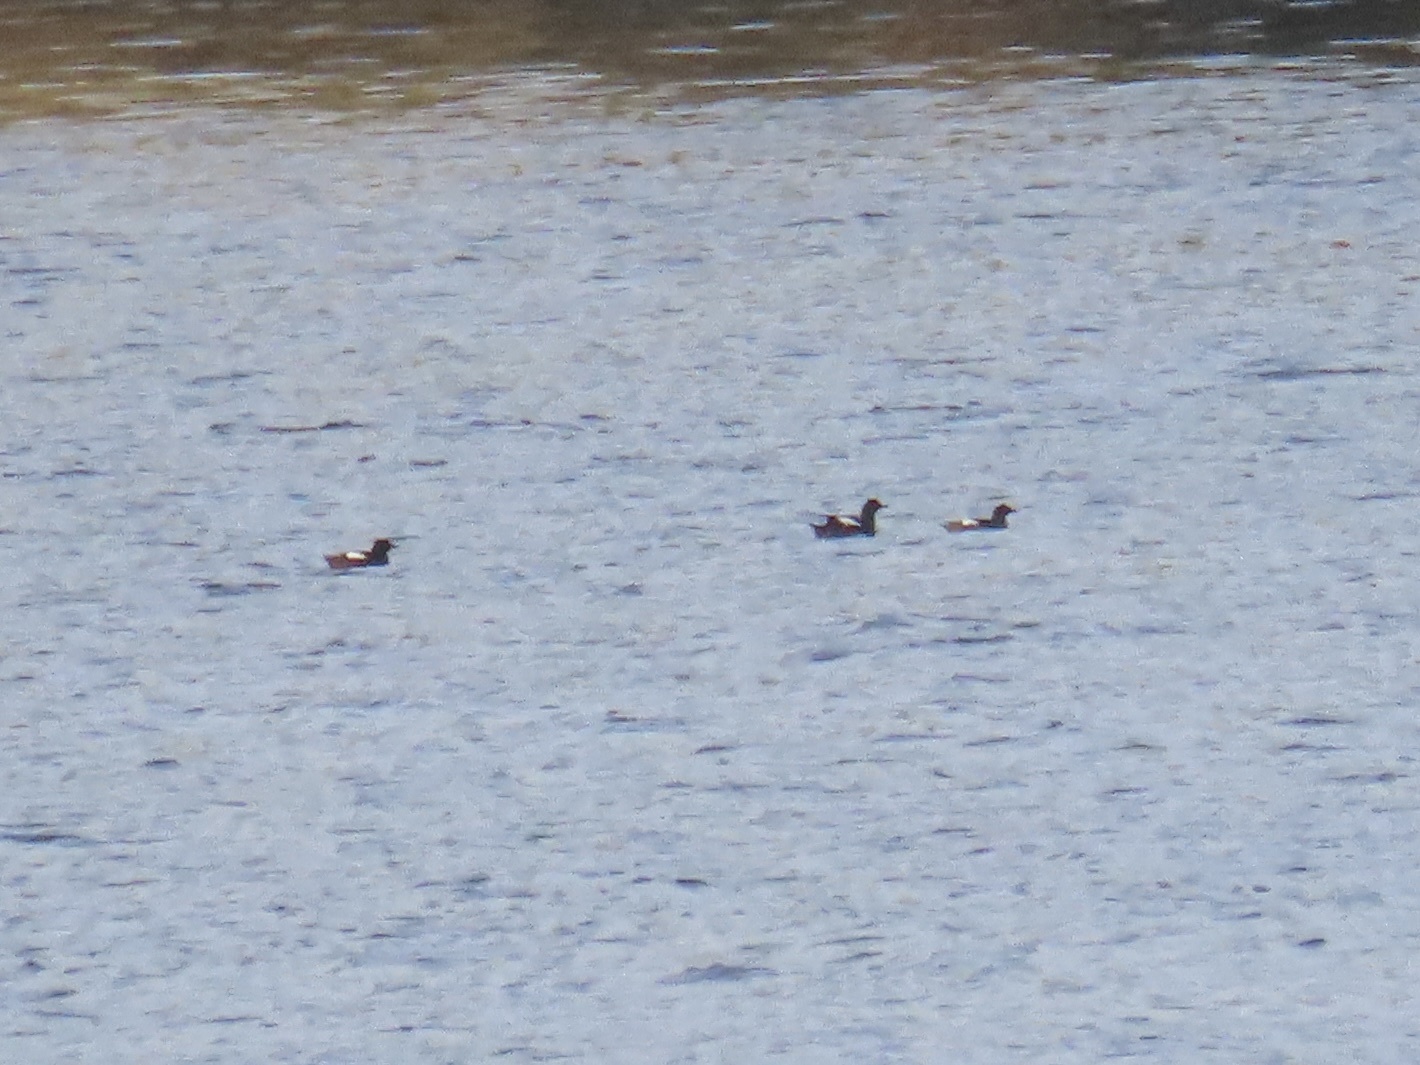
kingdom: Animalia
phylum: Chordata
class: Aves
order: Charadriiformes
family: Alcidae
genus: Cepphus
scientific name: Cepphus columba
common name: Pigeon guillemot
